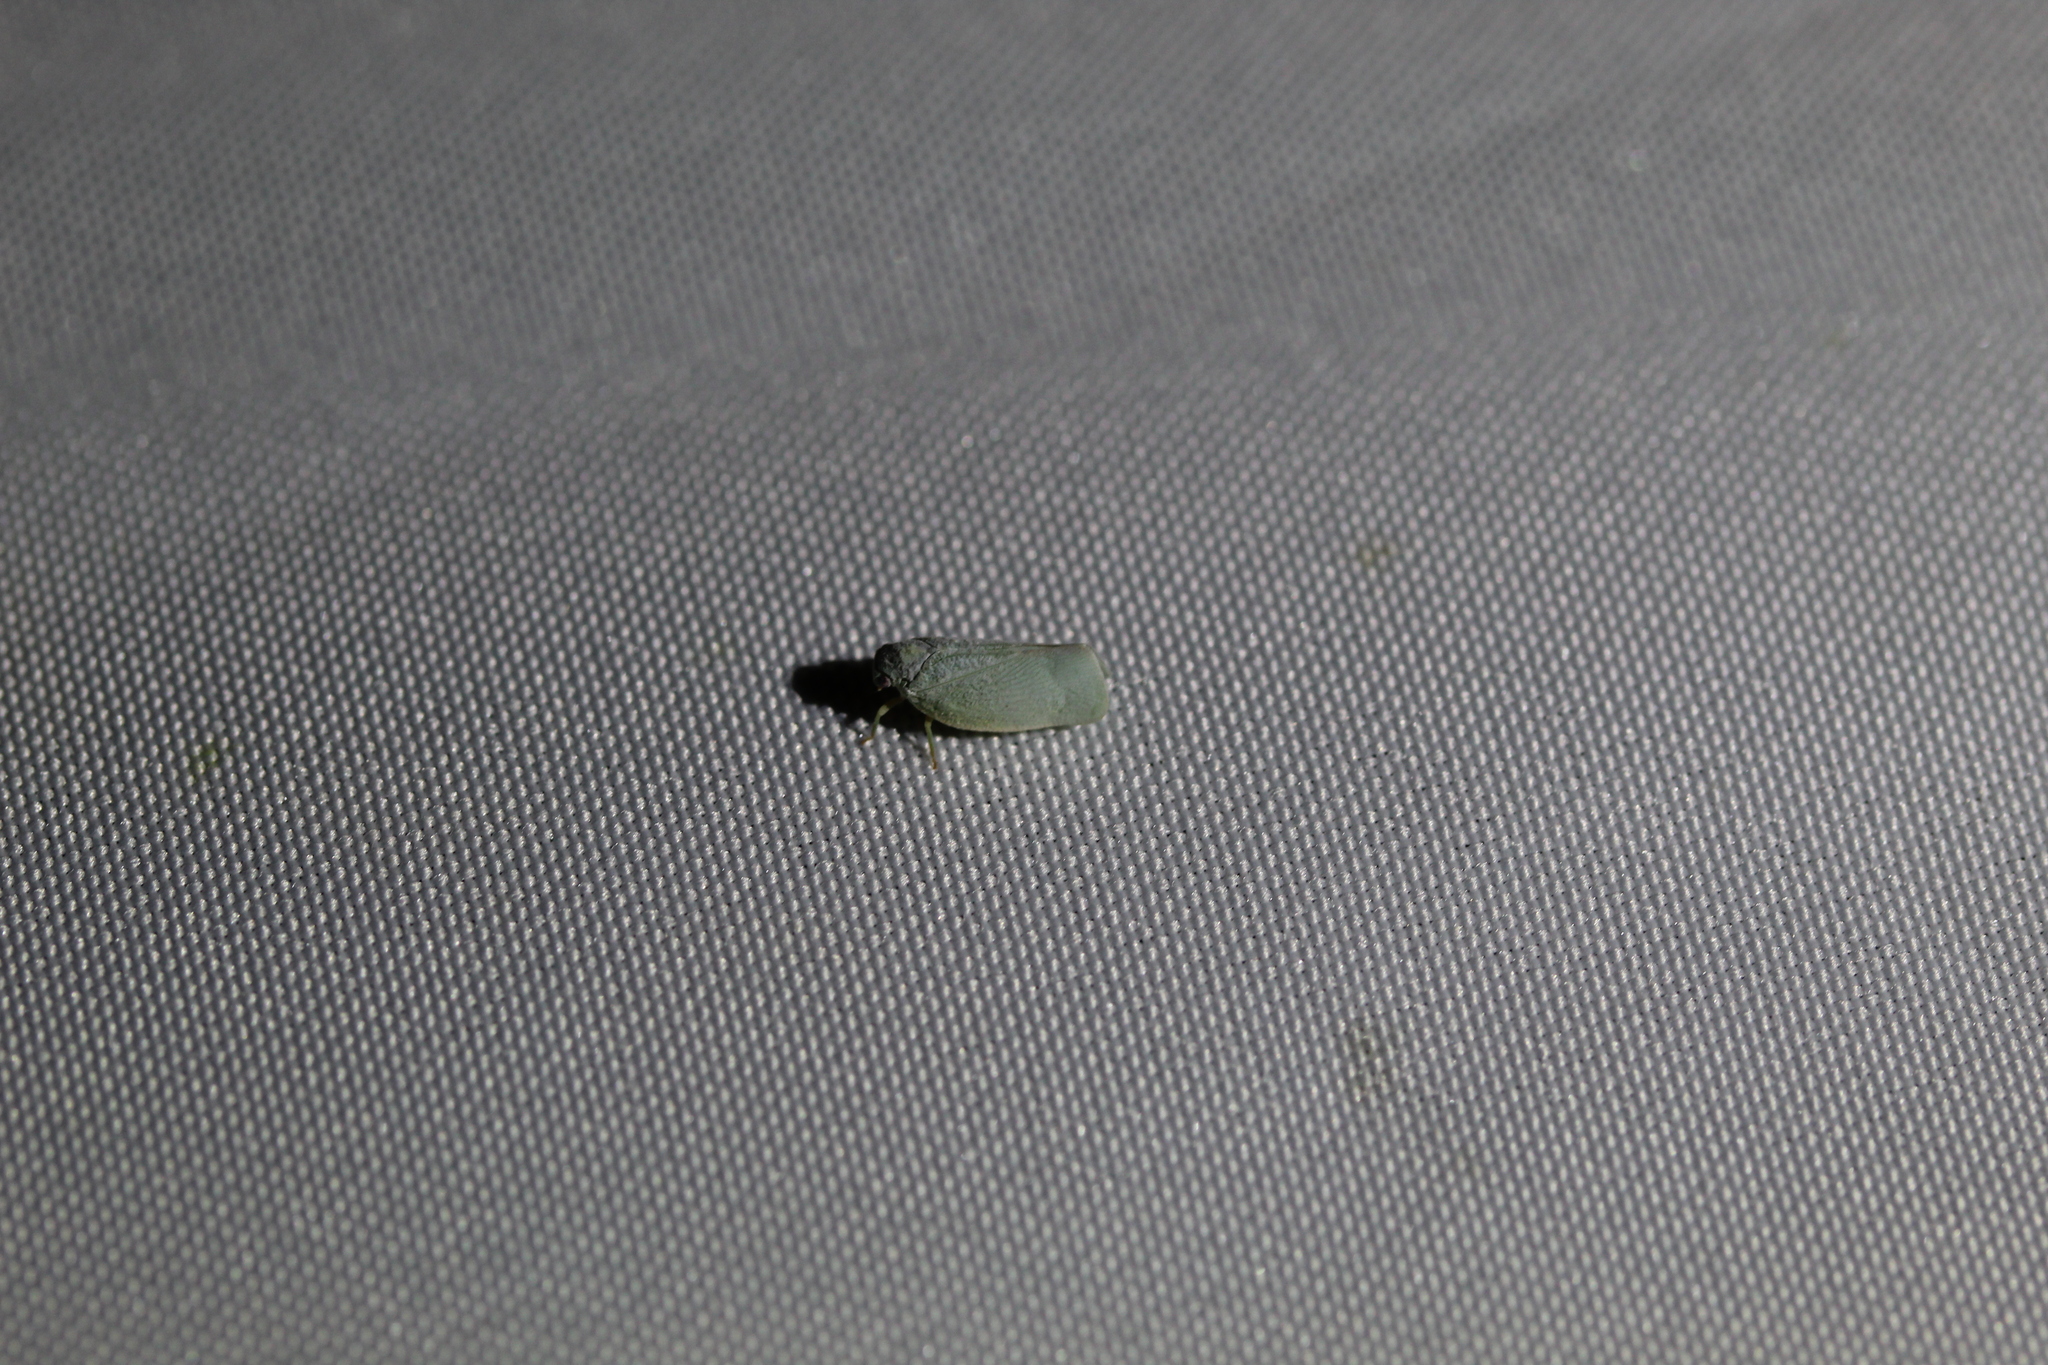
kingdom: Animalia
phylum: Arthropoda
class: Insecta
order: Hemiptera
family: Flatidae
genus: Flatormenis
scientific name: Flatormenis proxima
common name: Northern flatid planthopper
